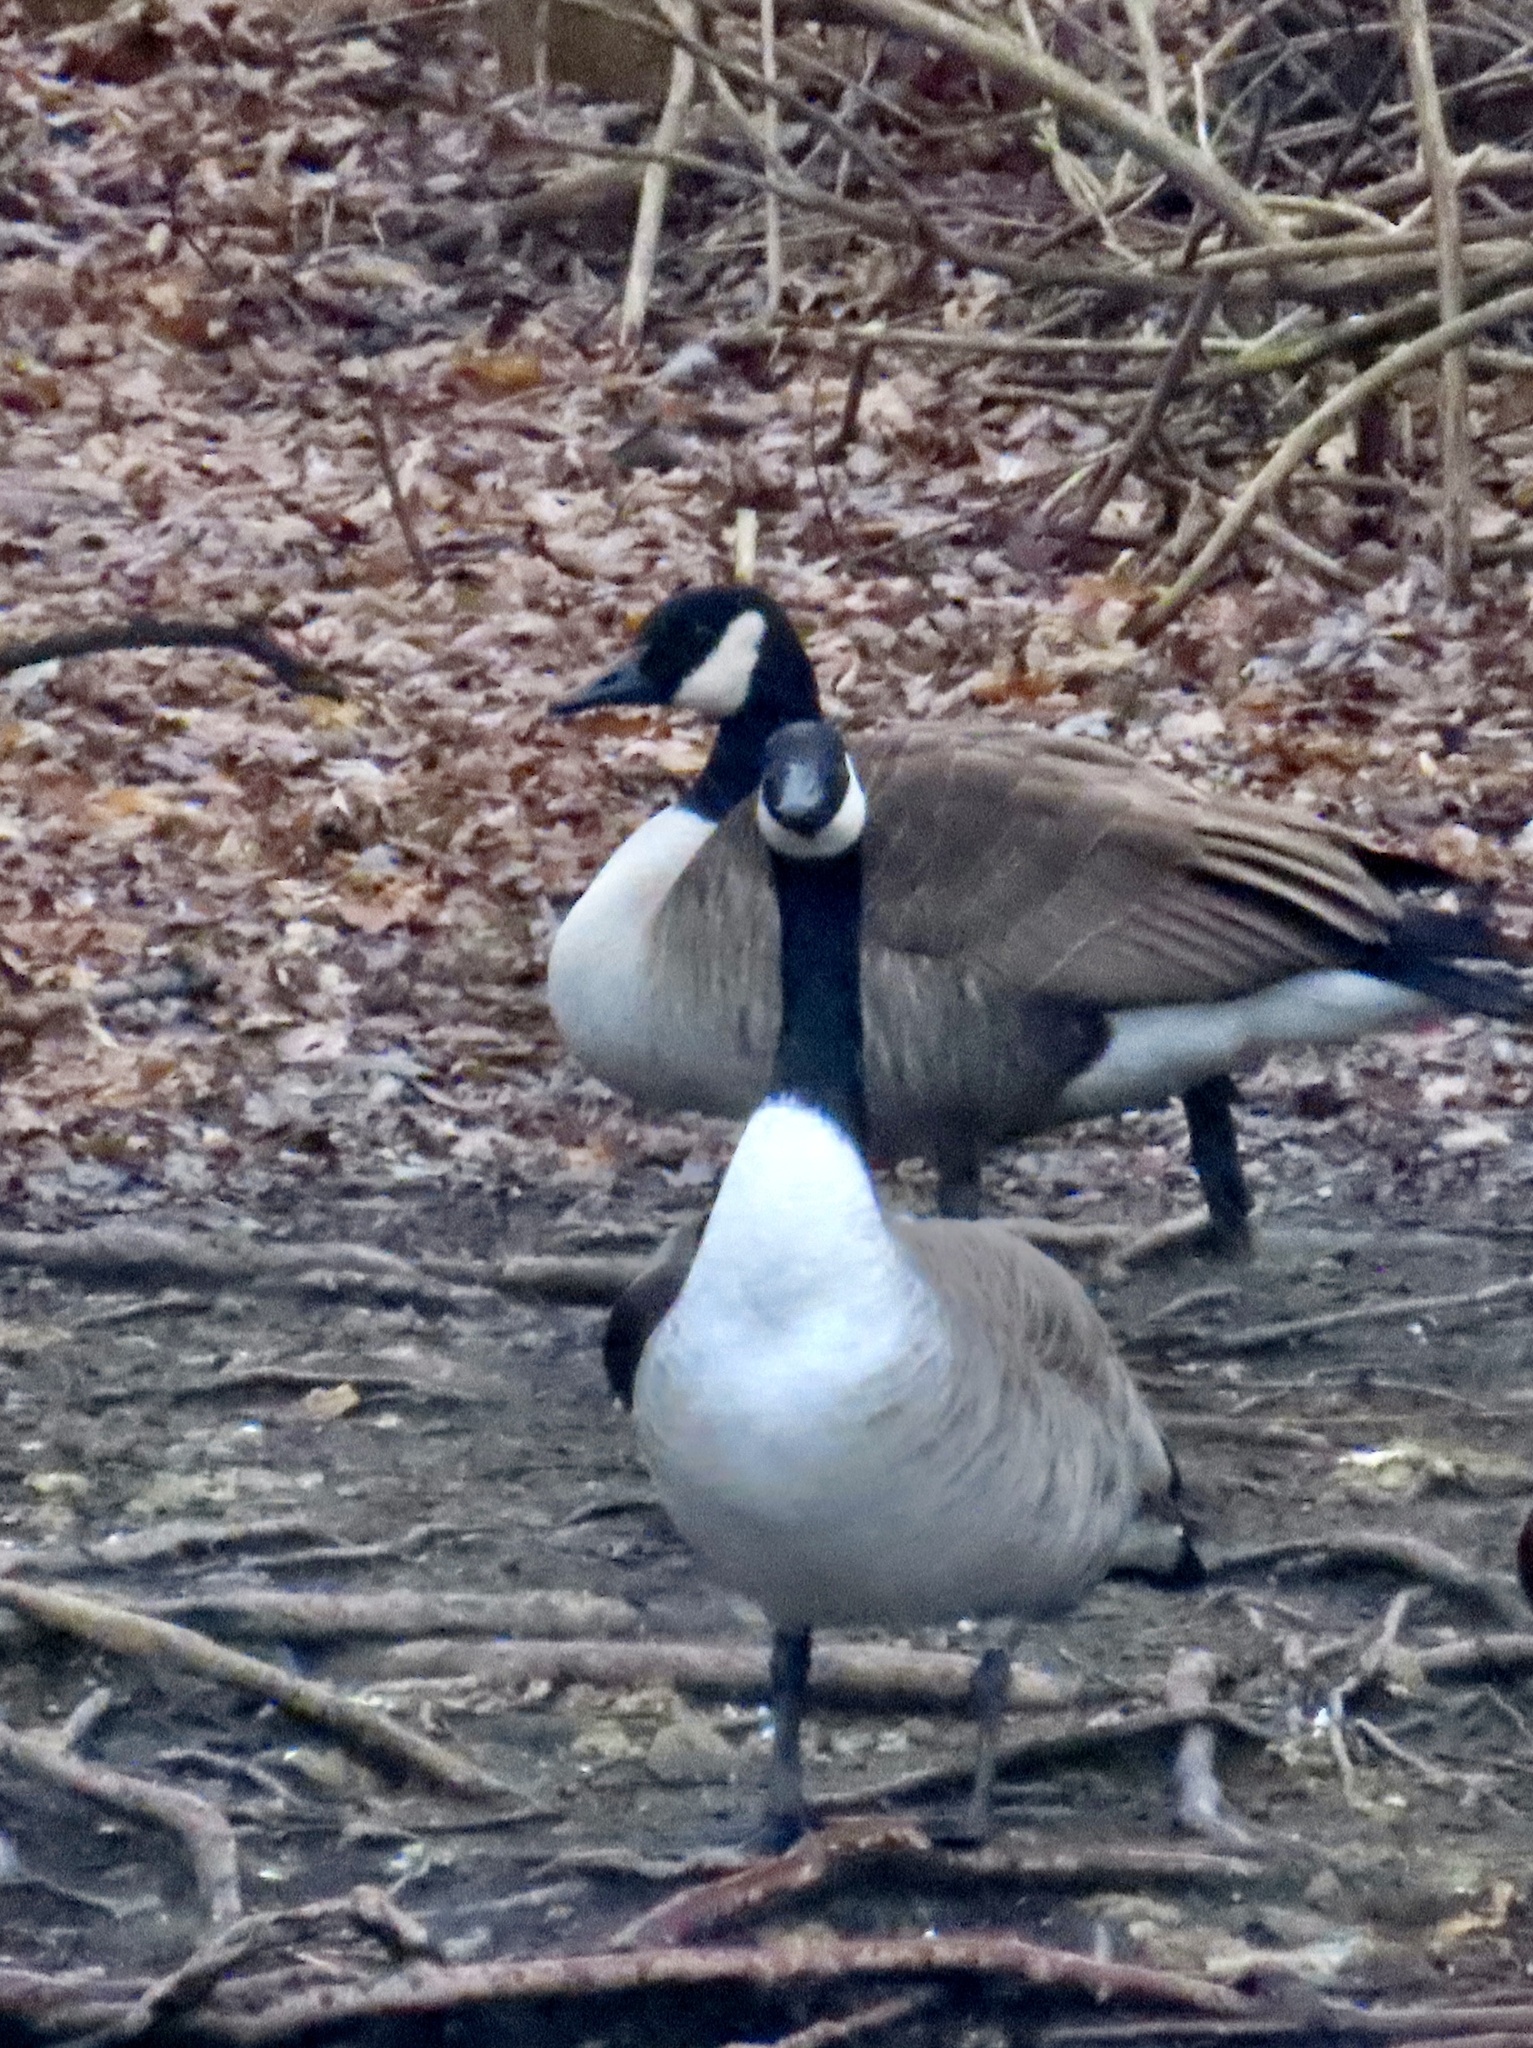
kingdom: Animalia
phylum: Chordata
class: Aves
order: Anseriformes
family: Anatidae
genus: Branta
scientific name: Branta canadensis
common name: Canada goose
